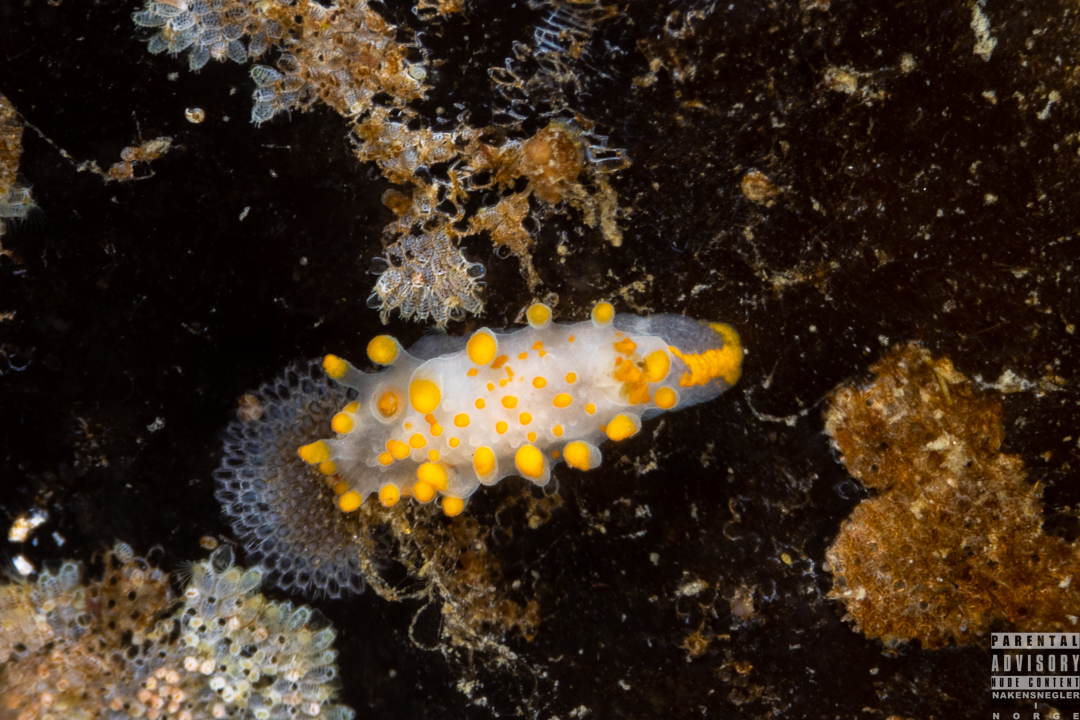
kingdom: Animalia
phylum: Mollusca
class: Gastropoda
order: Nudibranchia
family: Polyceridae
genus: Limacia
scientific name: Limacia clavigera
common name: Orange-clubbed sea slug
